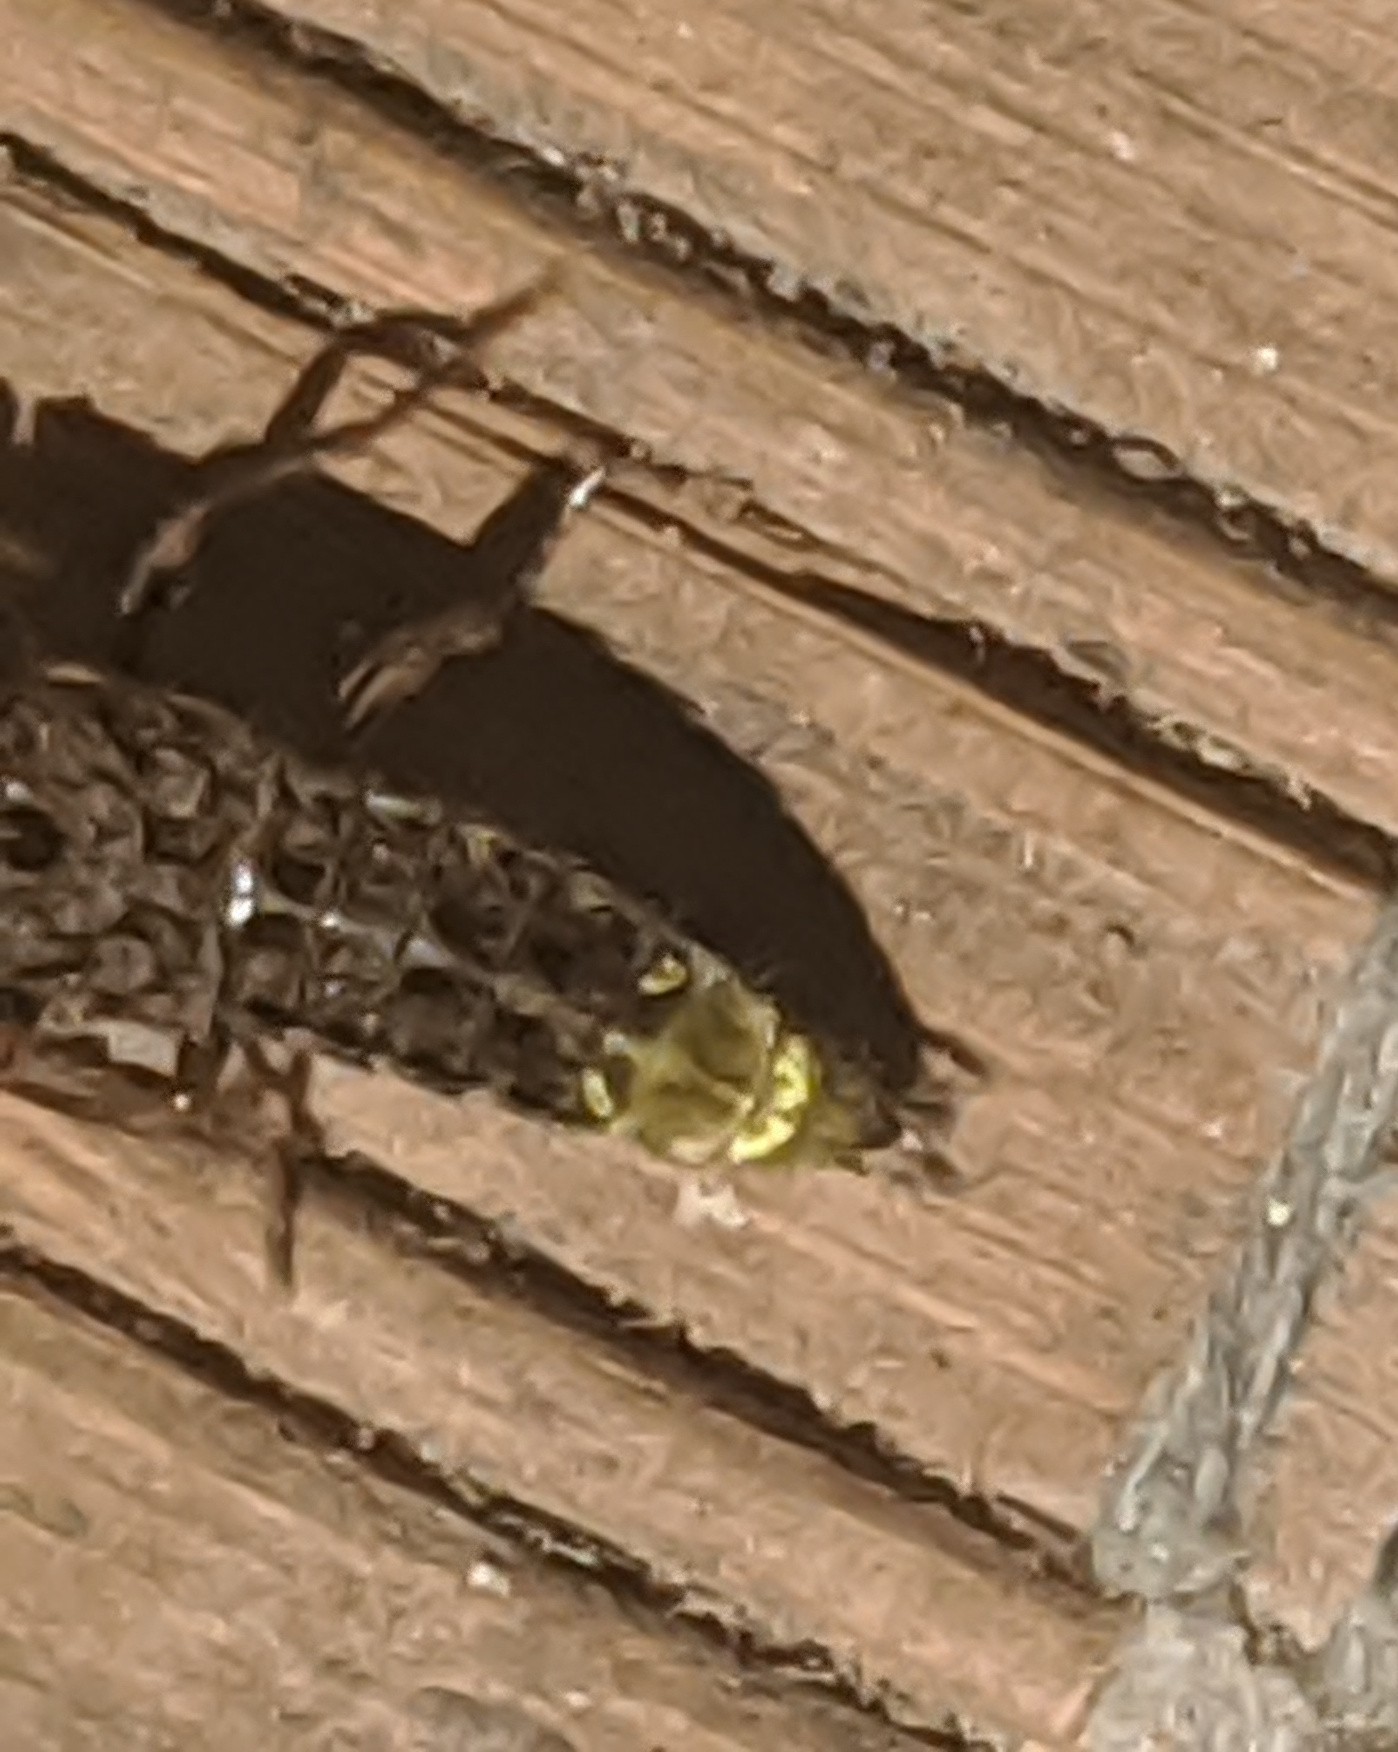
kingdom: Animalia
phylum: Arthropoda
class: Insecta
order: Coleoptera
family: Staphylinidae
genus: Ontholestes
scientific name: Ontholestes cingulatus
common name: Gold-and-brown rove beetle
